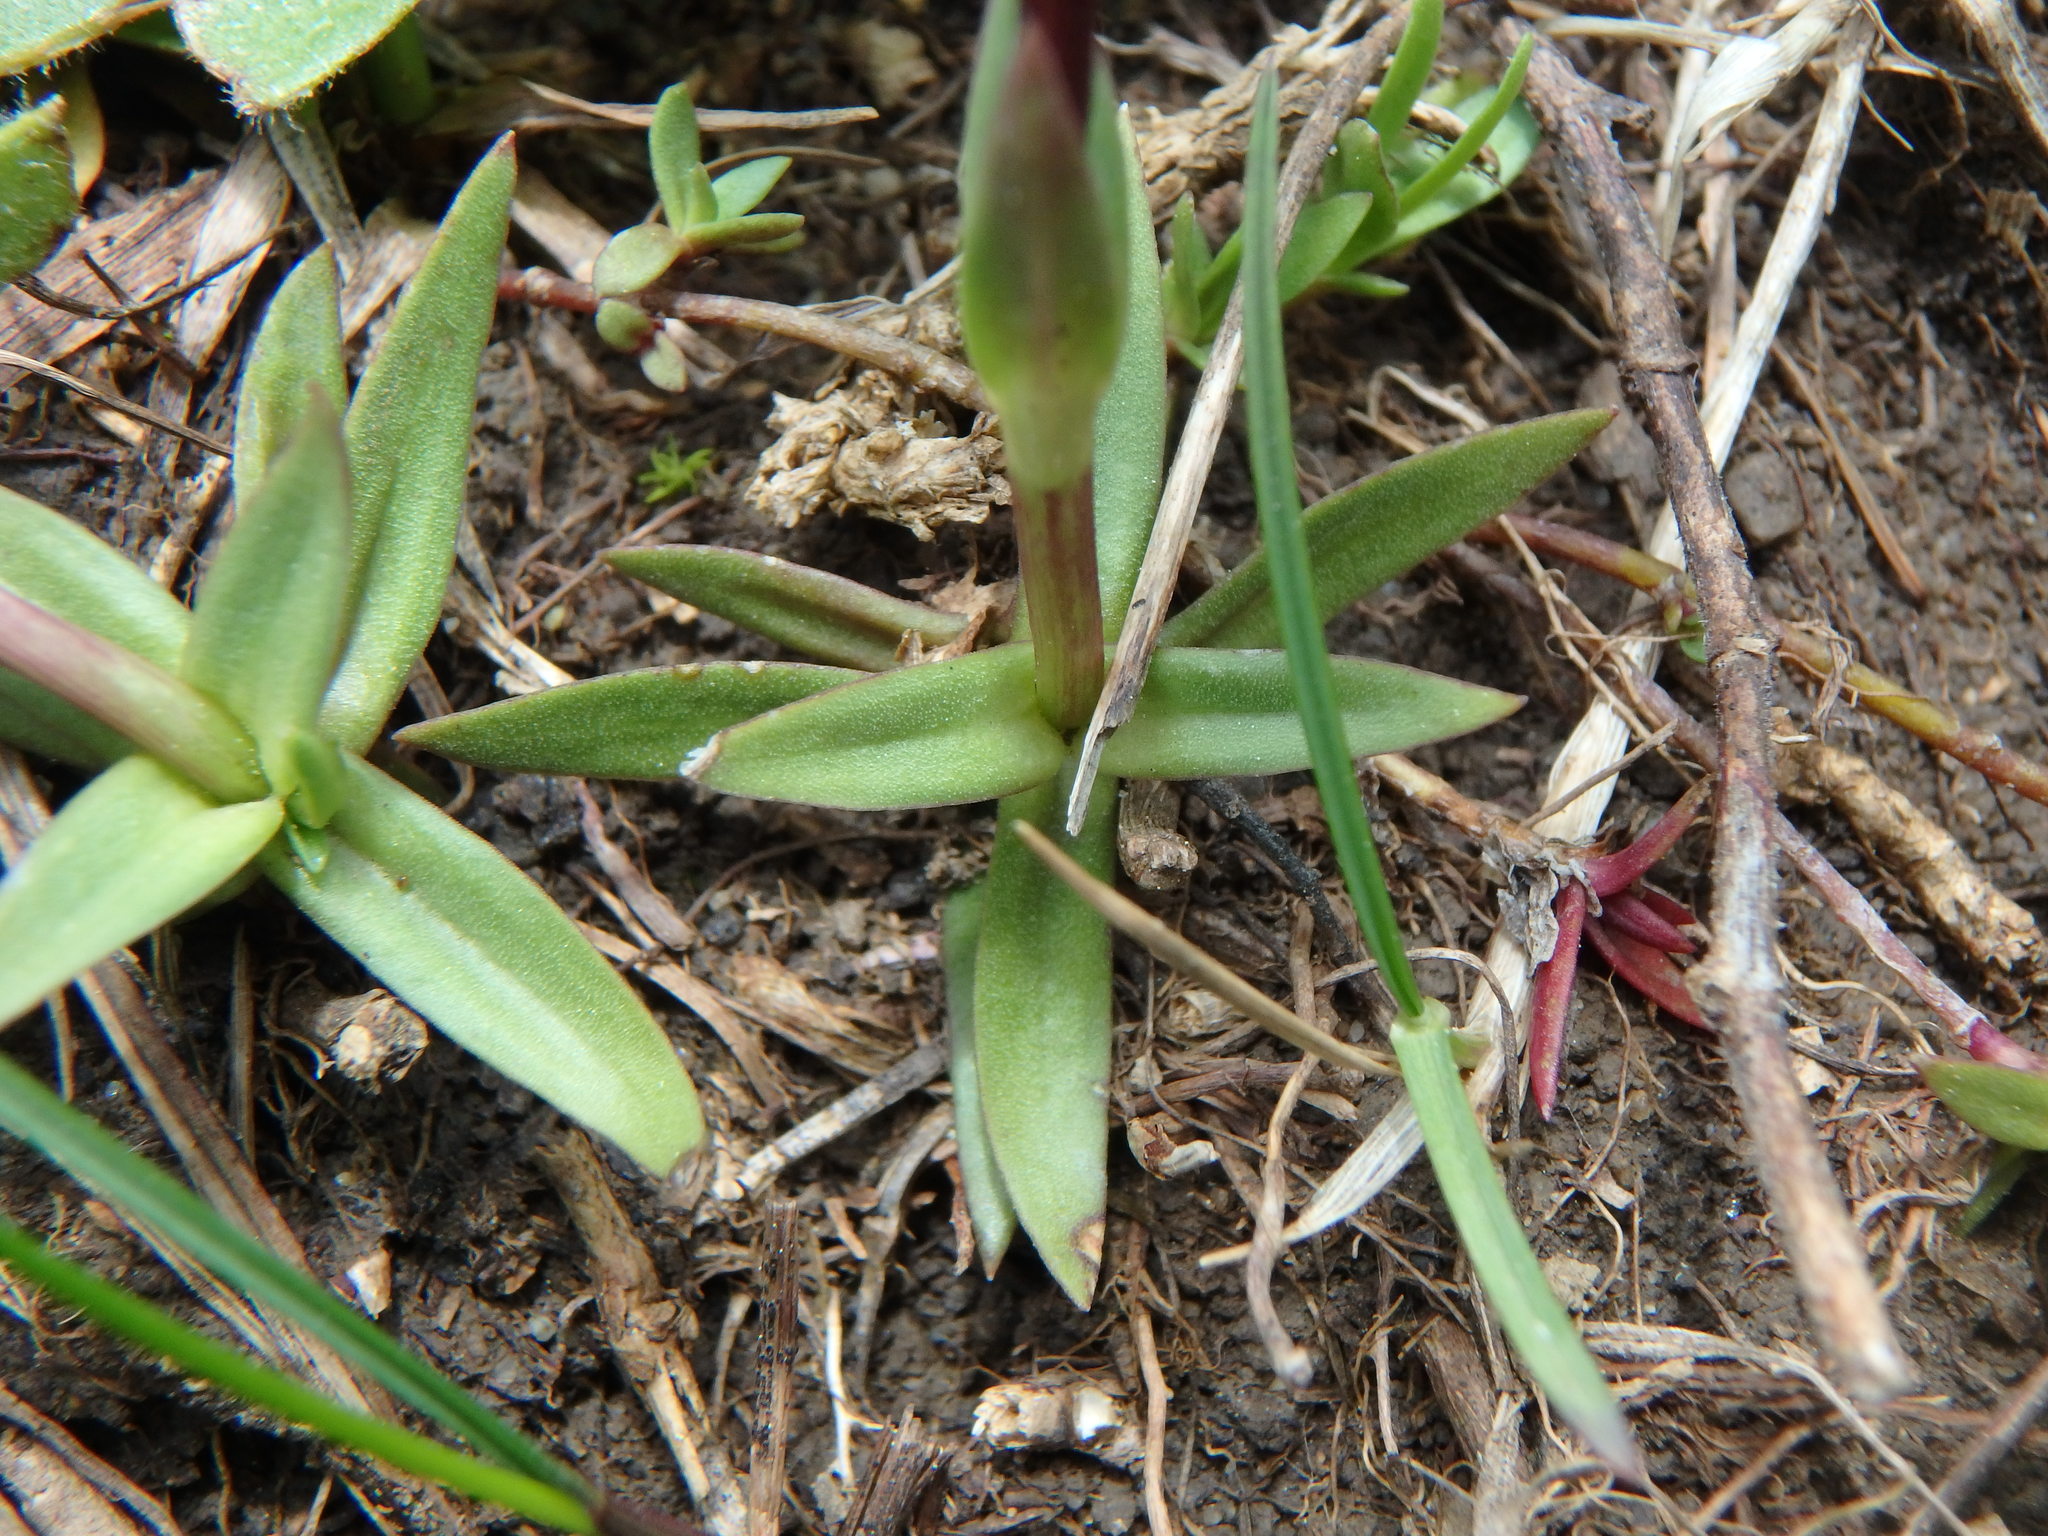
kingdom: Plantae
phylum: Tracheophyta
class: Magnoliopsida
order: Gentianales
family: Gentianaceae
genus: Gentiana
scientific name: Gentiana pumila
